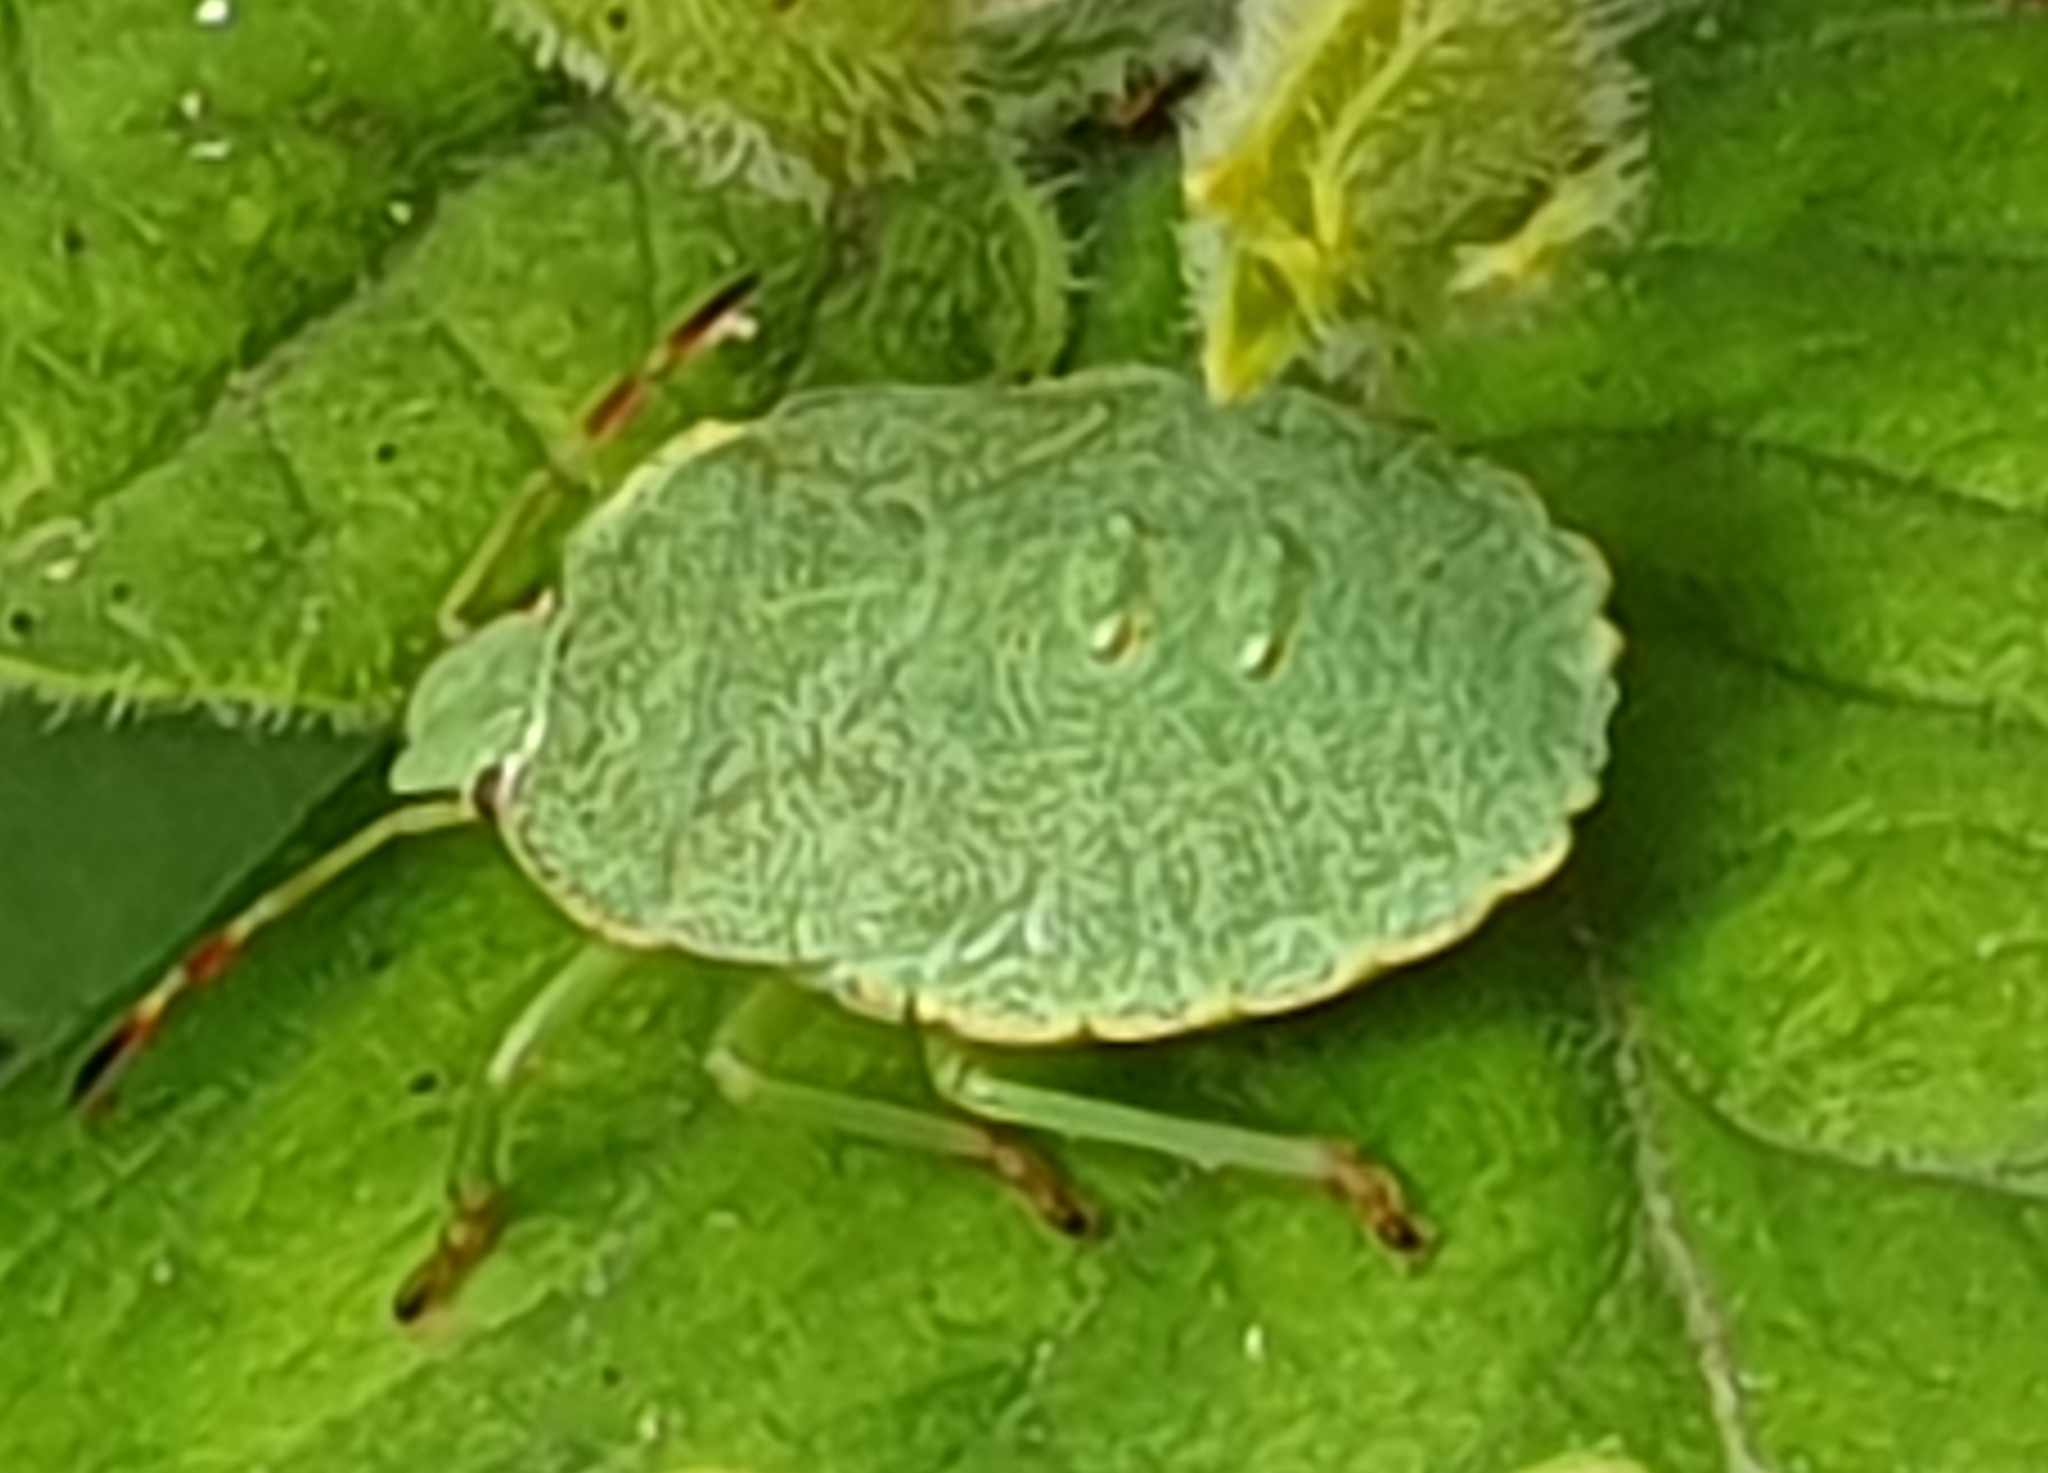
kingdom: Animalia
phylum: Arthropoda
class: Insecta
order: Hemiptera
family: Pentatomidae
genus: Palomena
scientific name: Palomena prasina
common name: Green shieldbug
